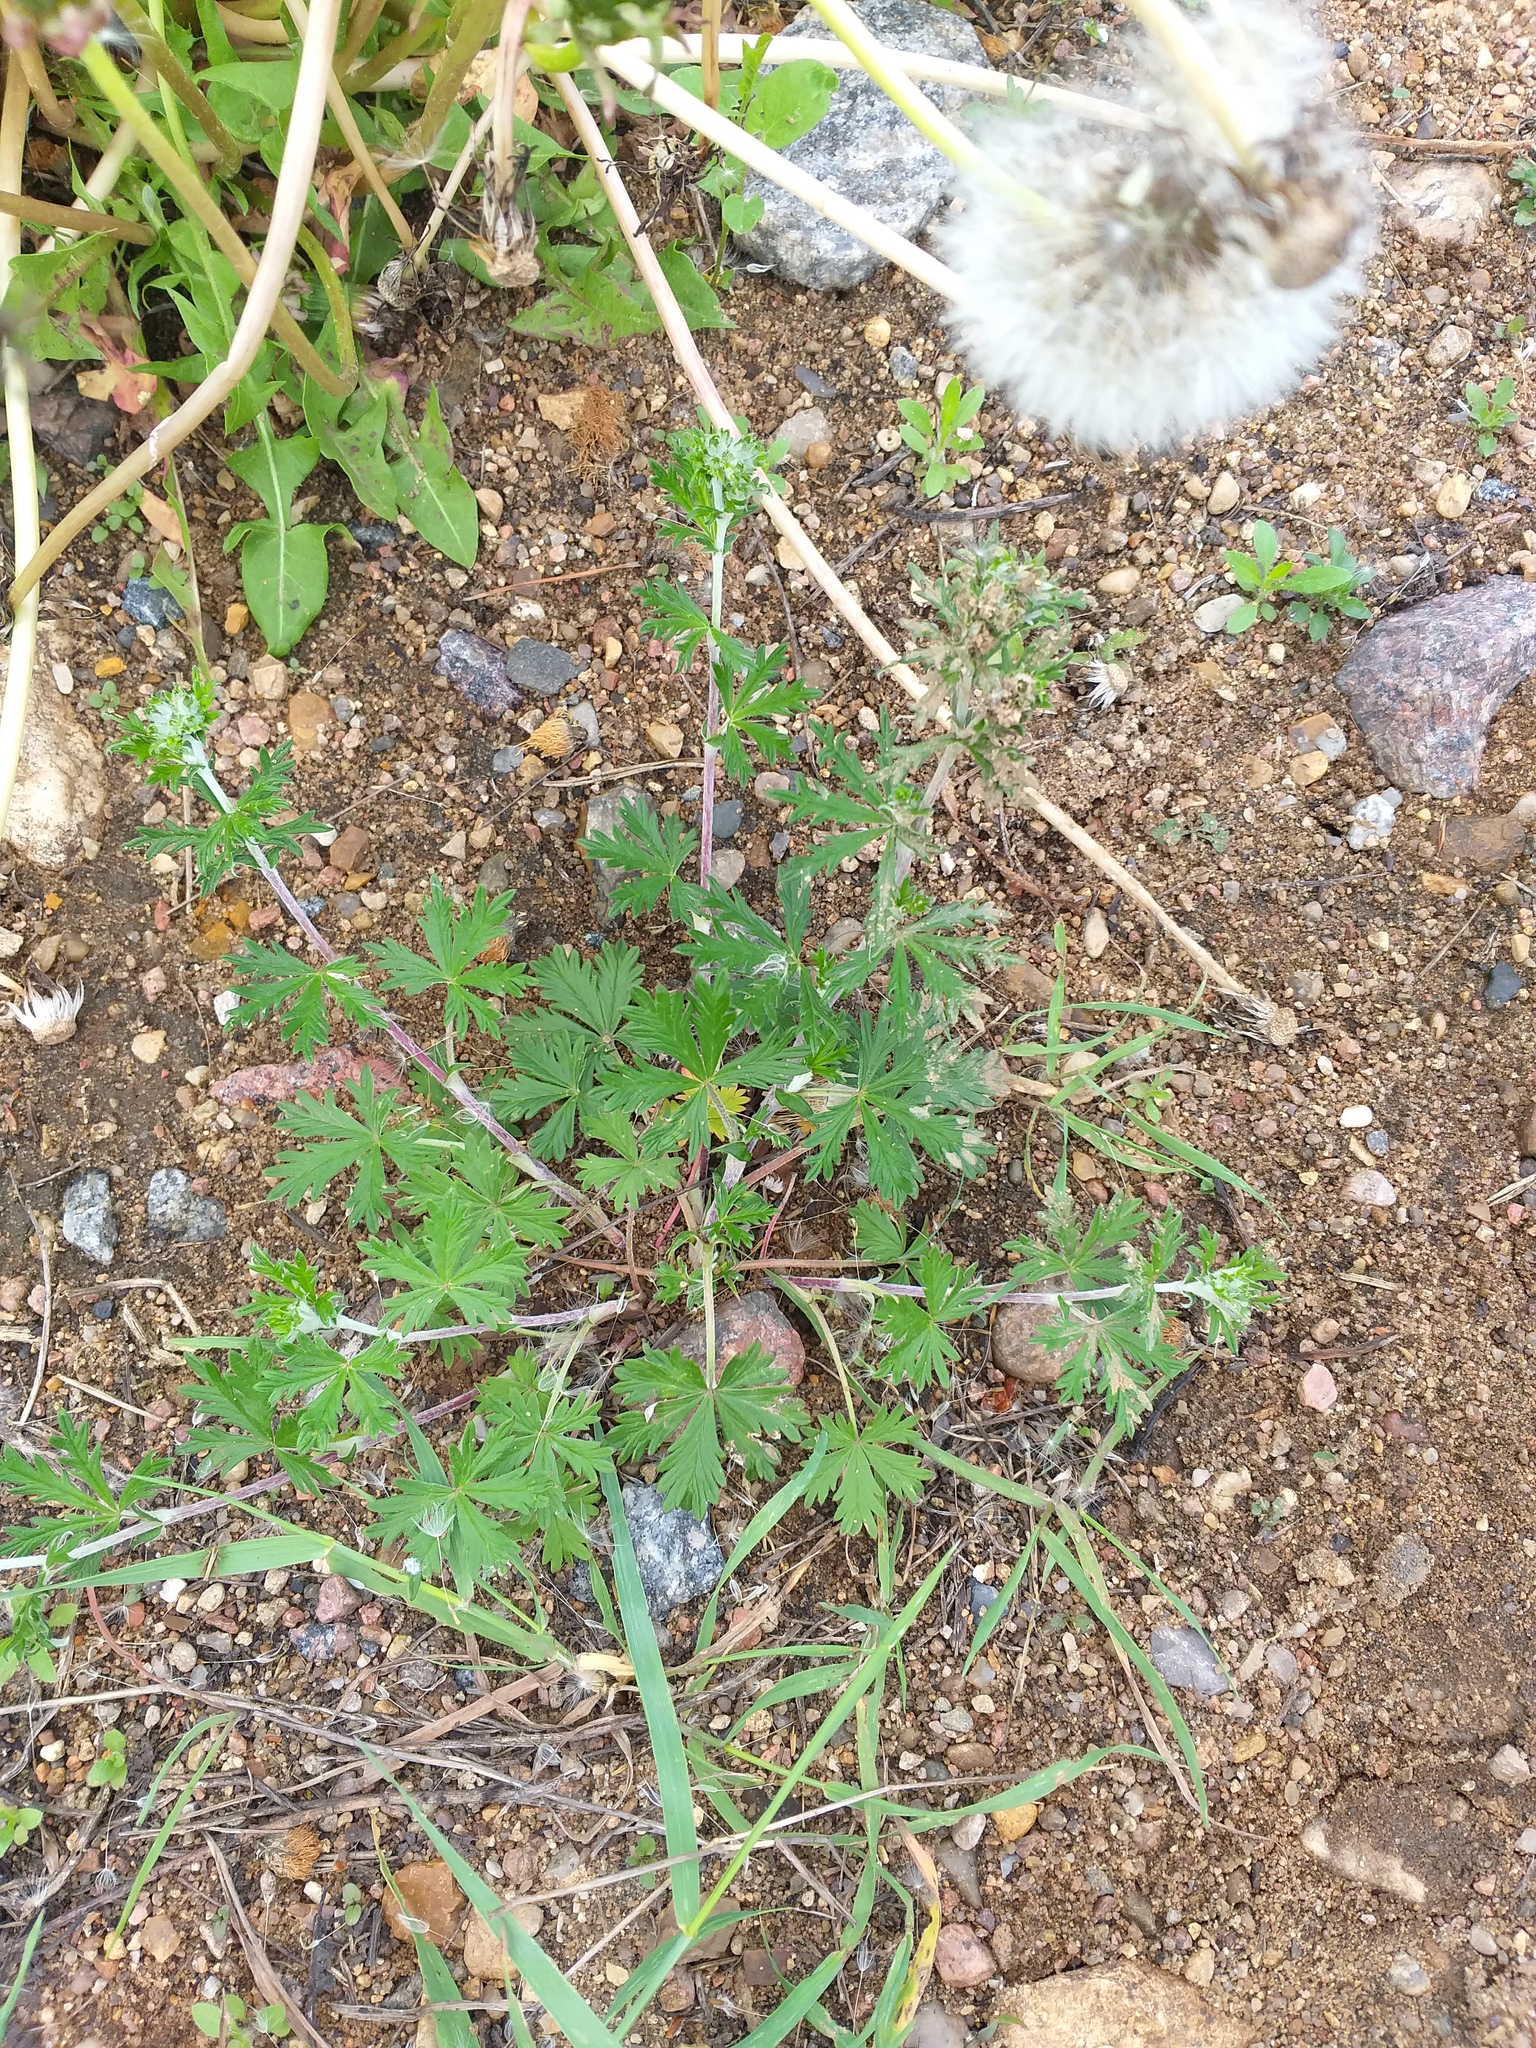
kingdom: Plantae
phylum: Tracheophyta
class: Magnoliopsida
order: Rosales
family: Rosaceae
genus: Potentilla
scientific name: Potentilla argentea
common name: Hoary cinquefoil
